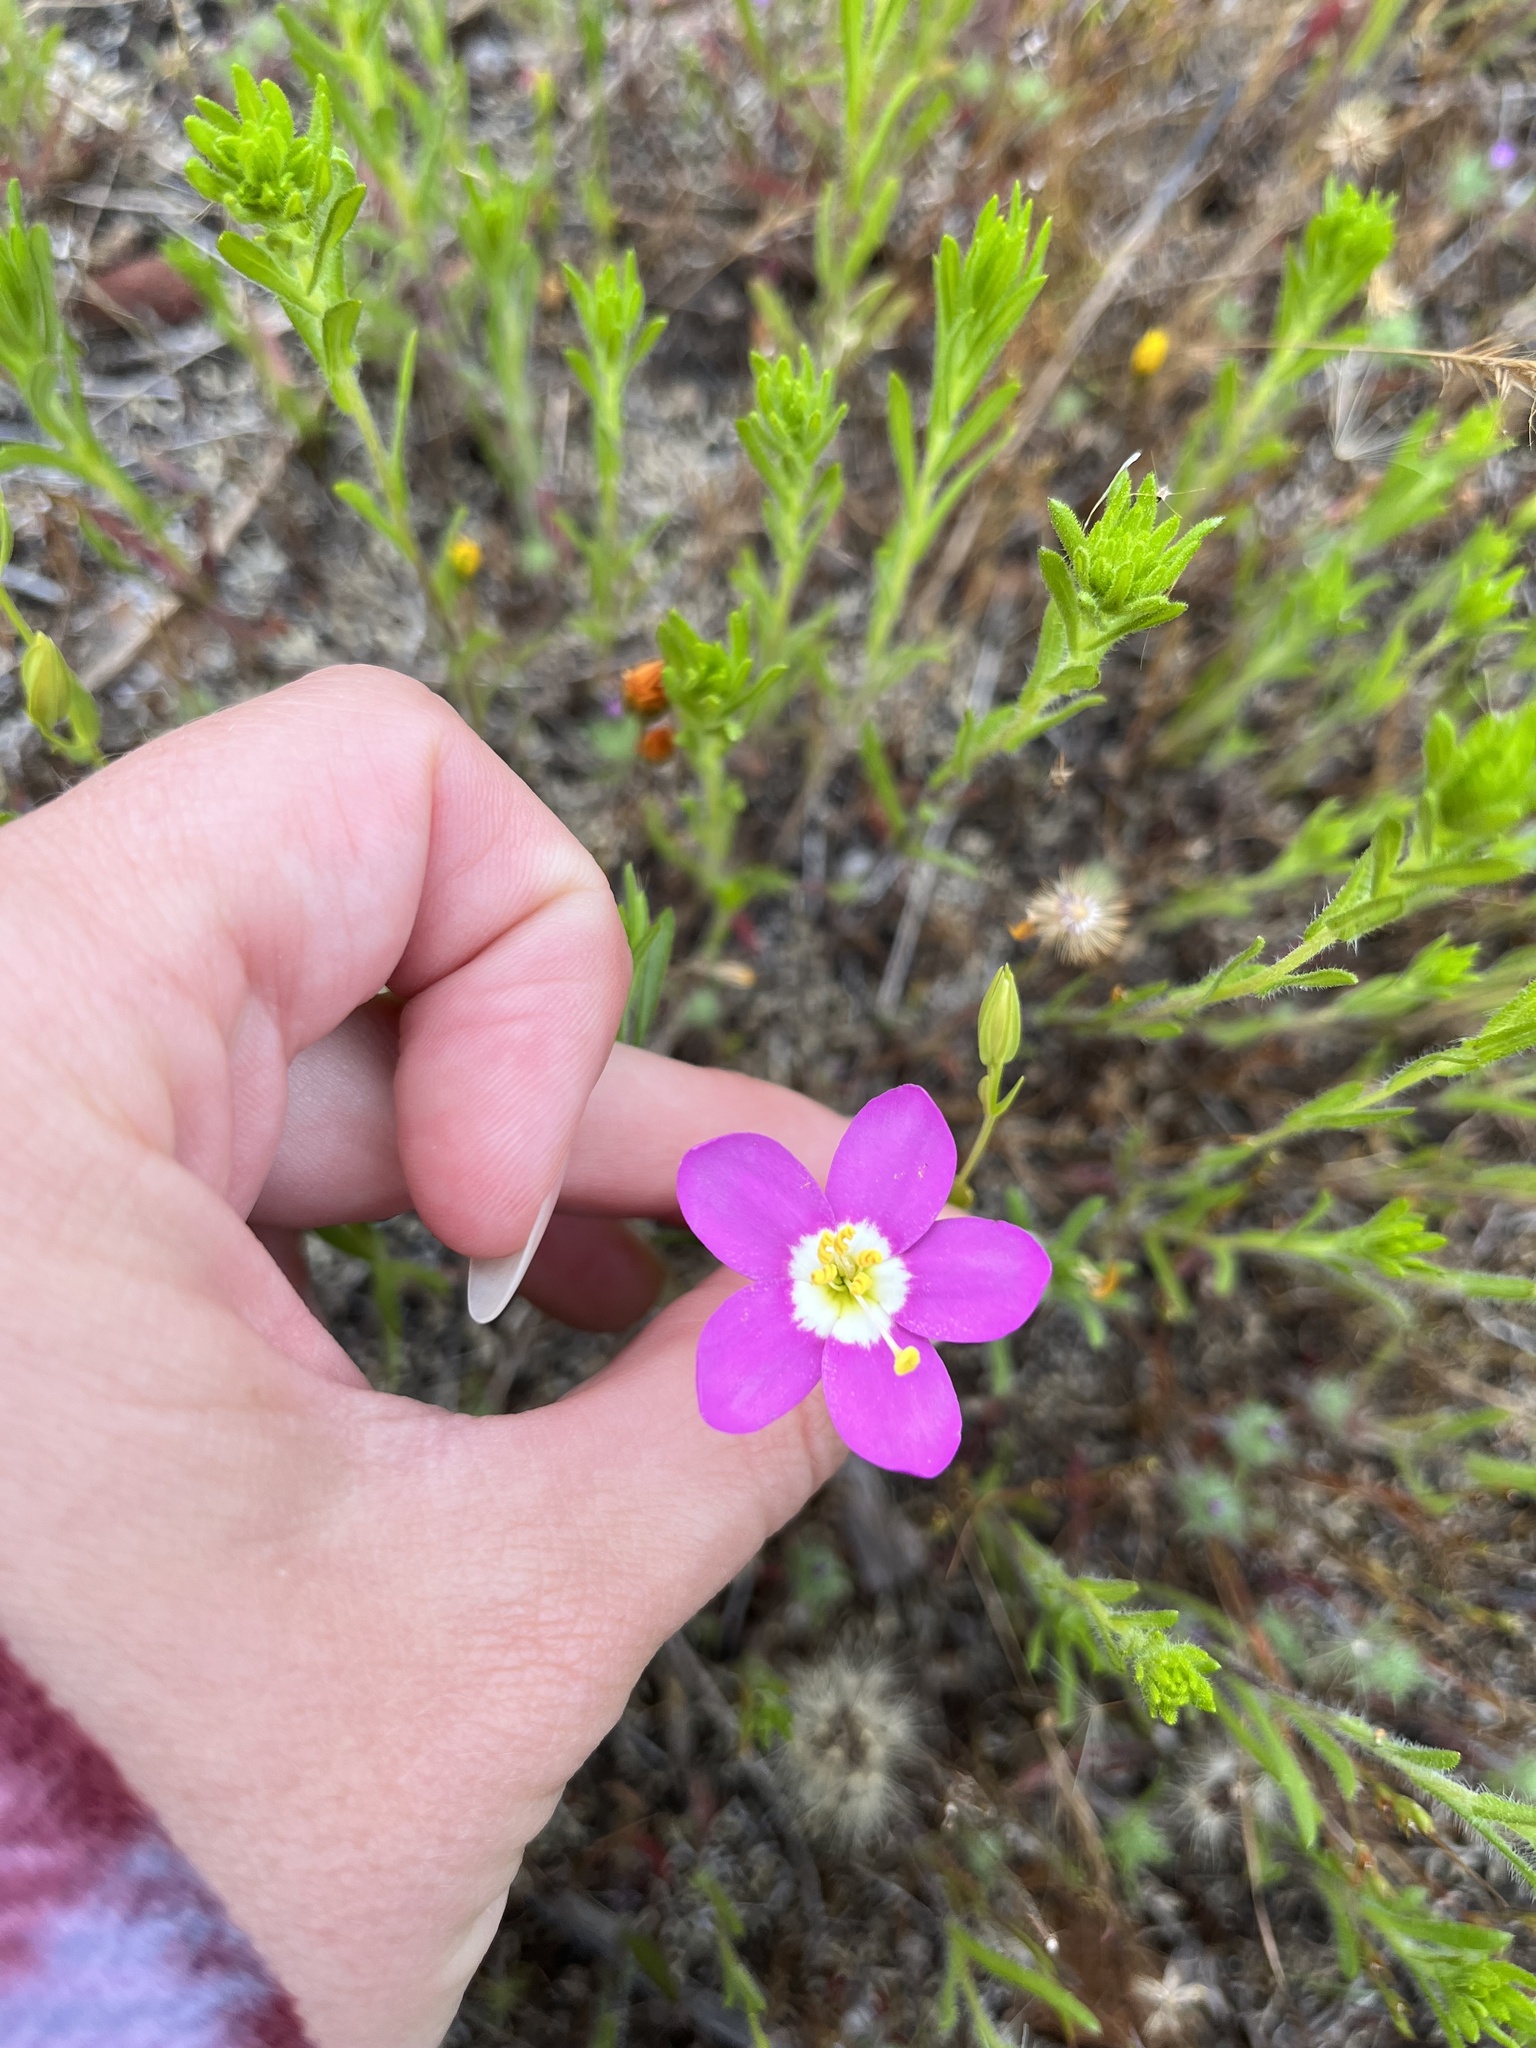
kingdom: Plantae
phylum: Tracheophyta
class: Magnoliopsida
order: Gentianales
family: Gentianaceae
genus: Zeltnera
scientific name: Zeltnera venusta
